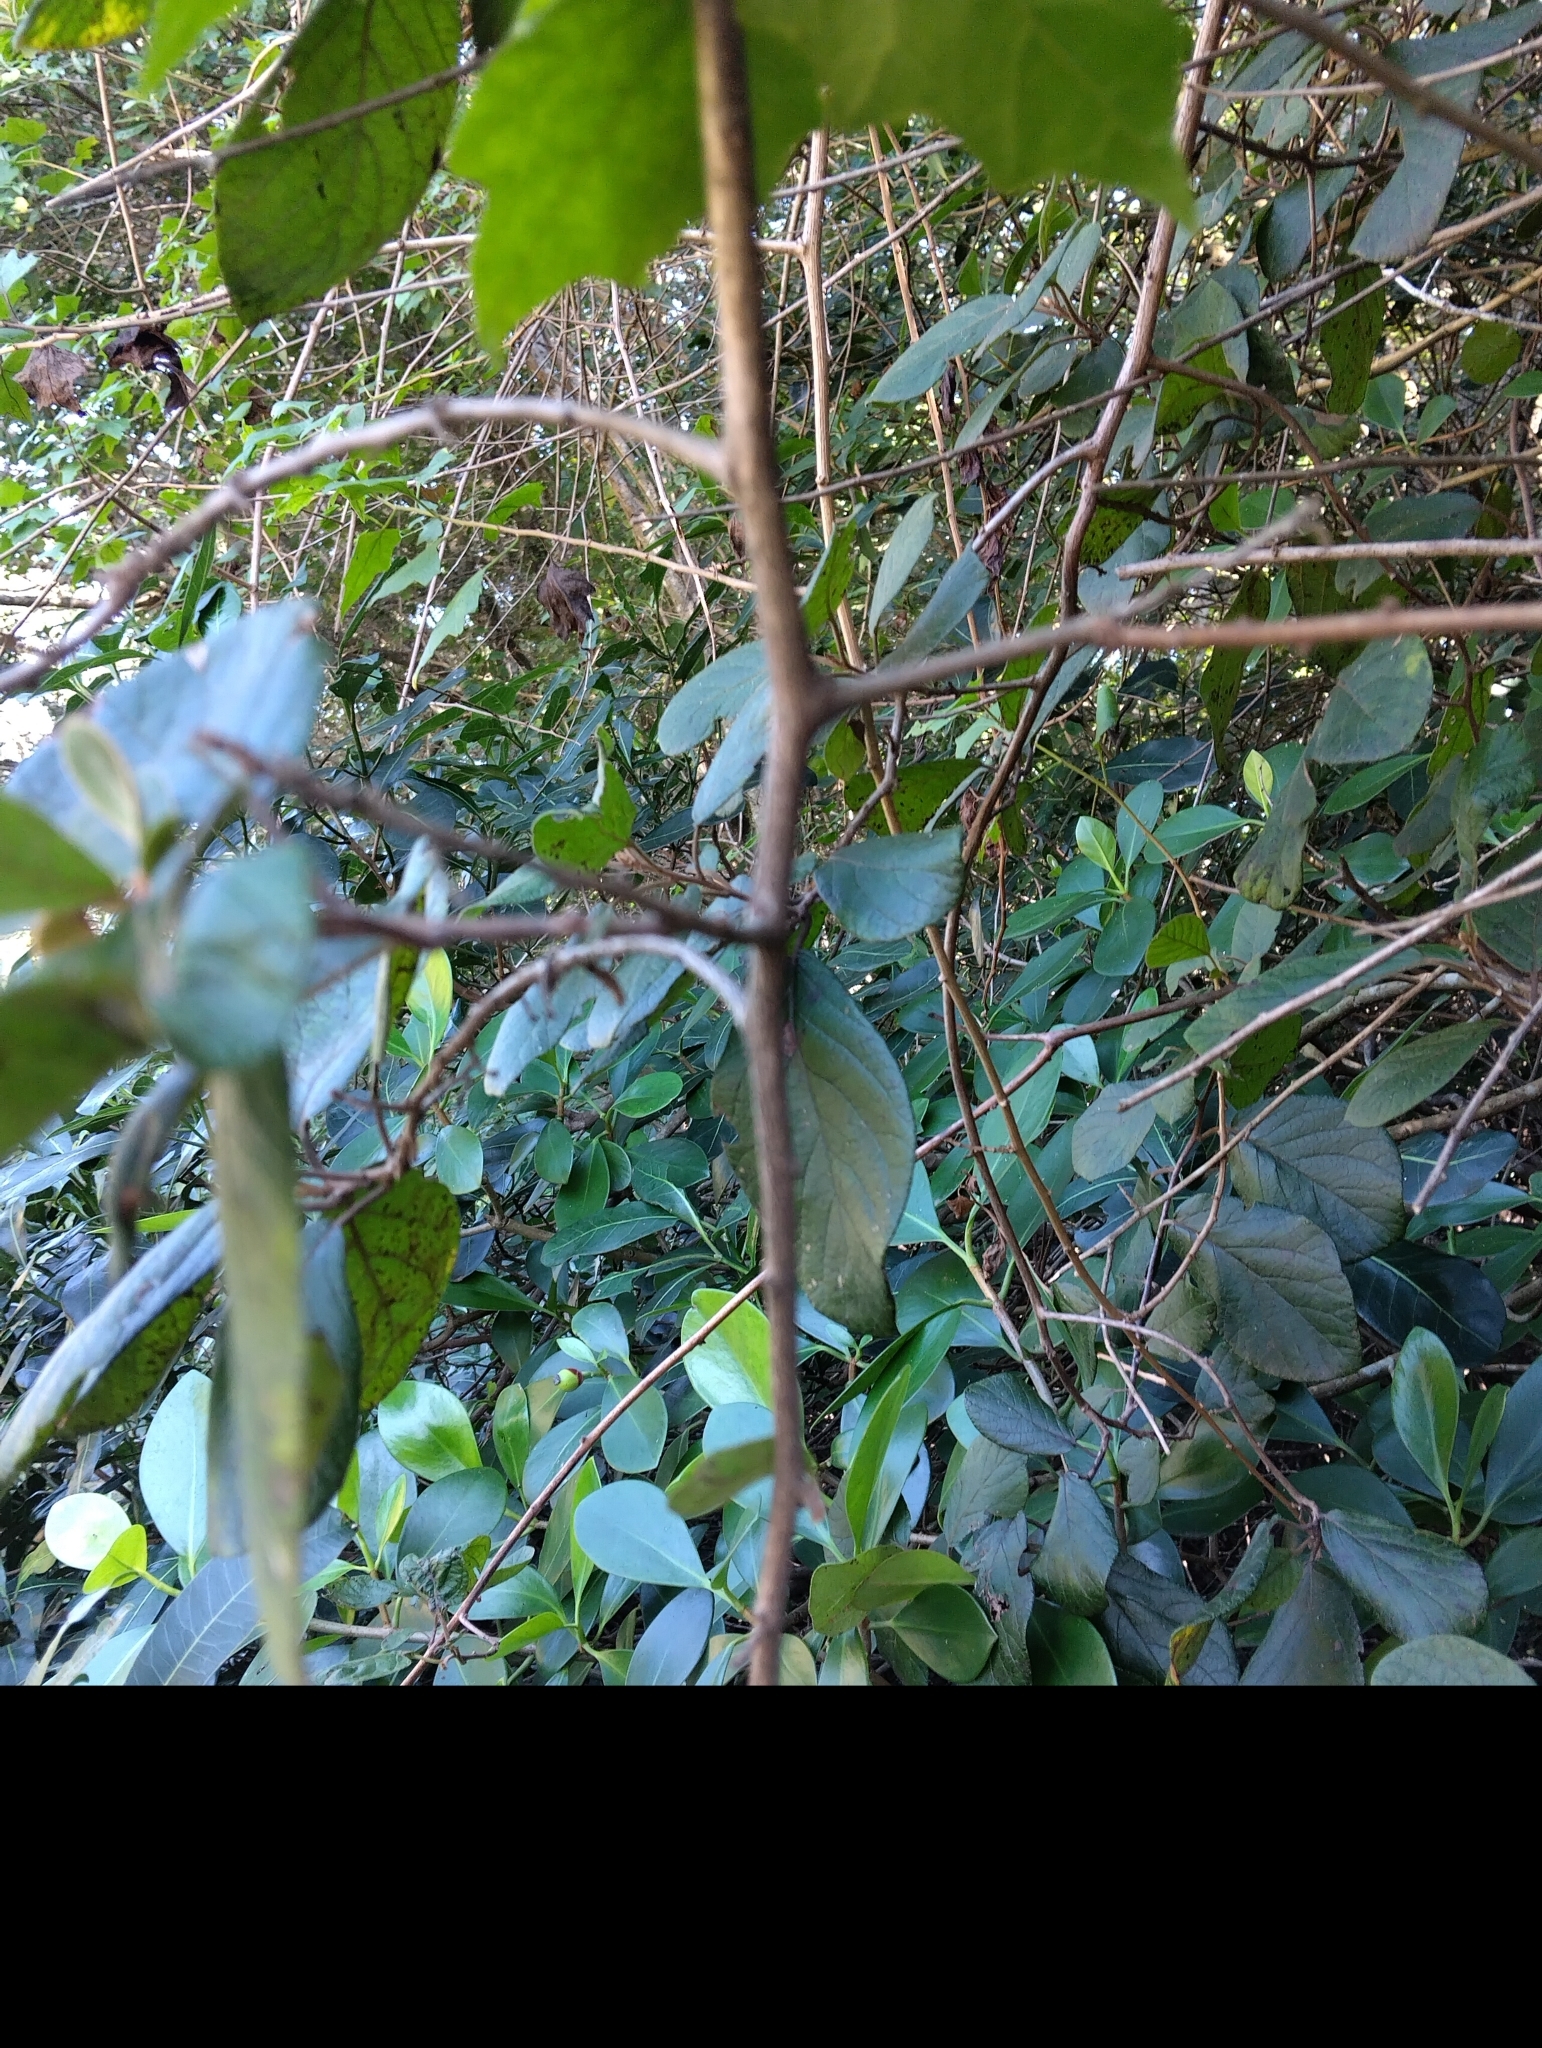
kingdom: Plantae
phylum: Tracheophyta
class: Magnoliopsida
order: Ericales
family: Ebenaceae
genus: Diospyros
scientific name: Diospyros villosa
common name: Hairy star-apple
